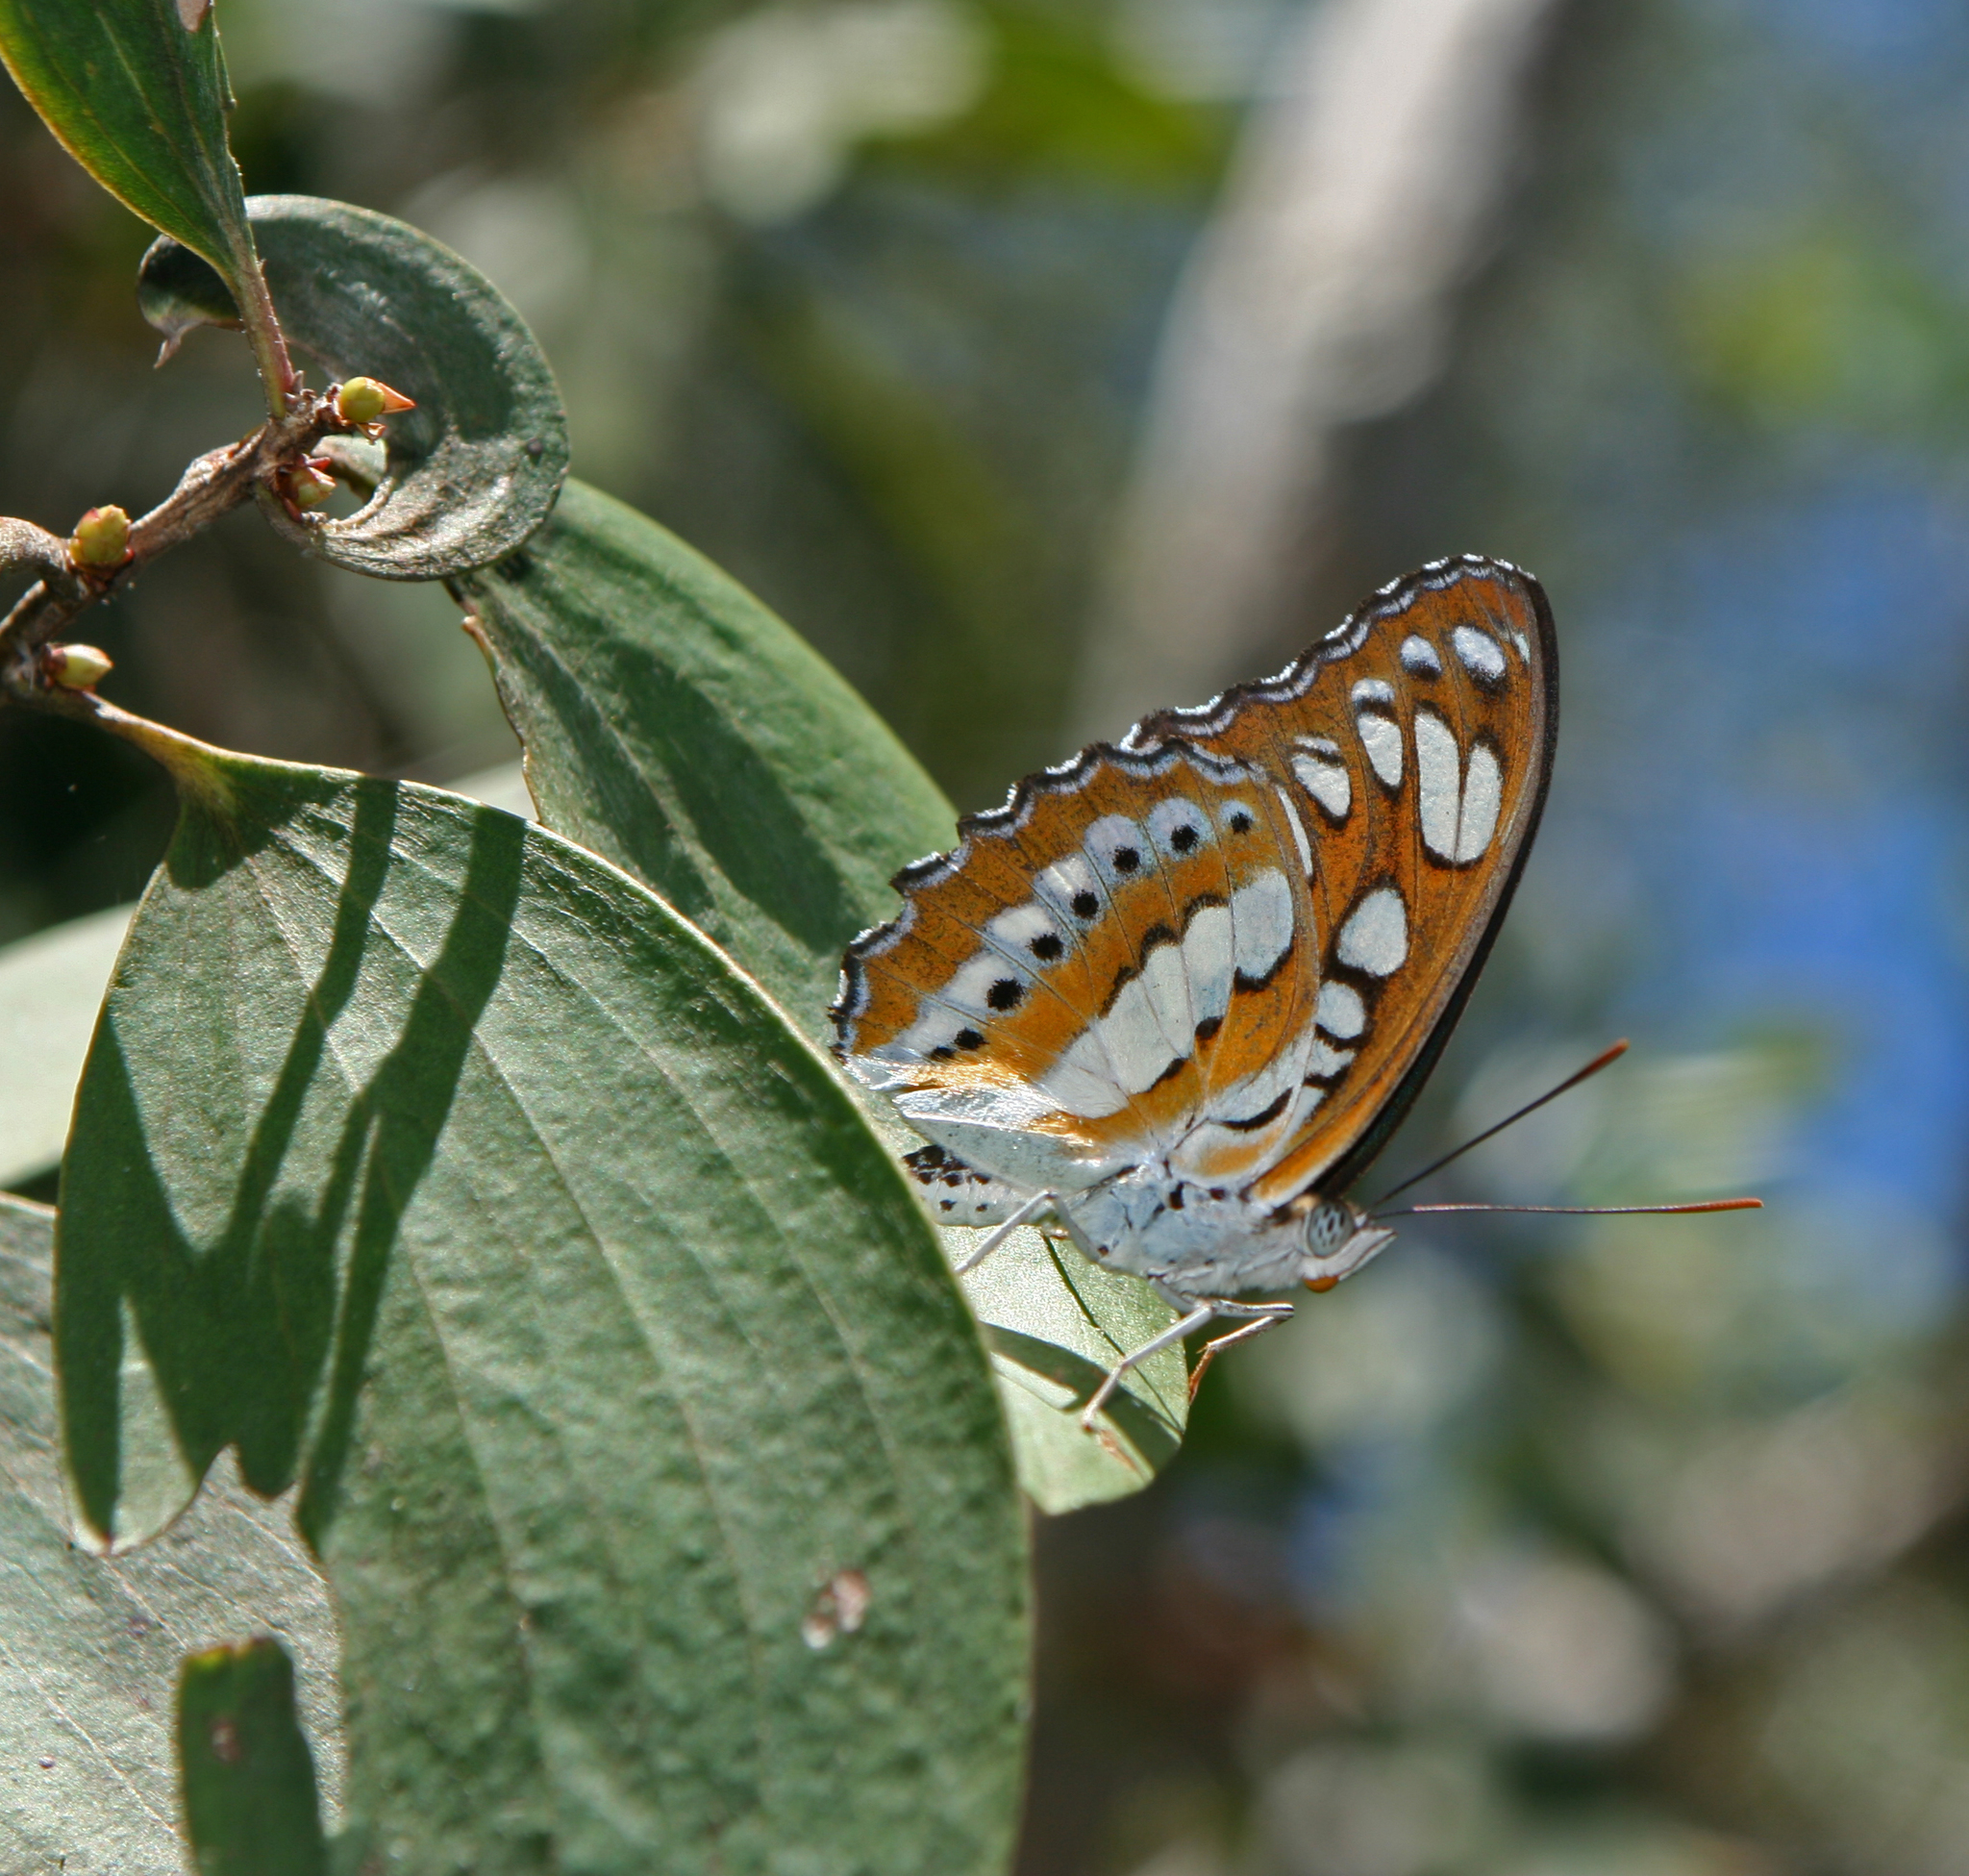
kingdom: Animalia
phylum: Arthropoda
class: Insecta
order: Lepidoptera
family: Nymphalidae
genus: Parathyma
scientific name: Parathyma perius
